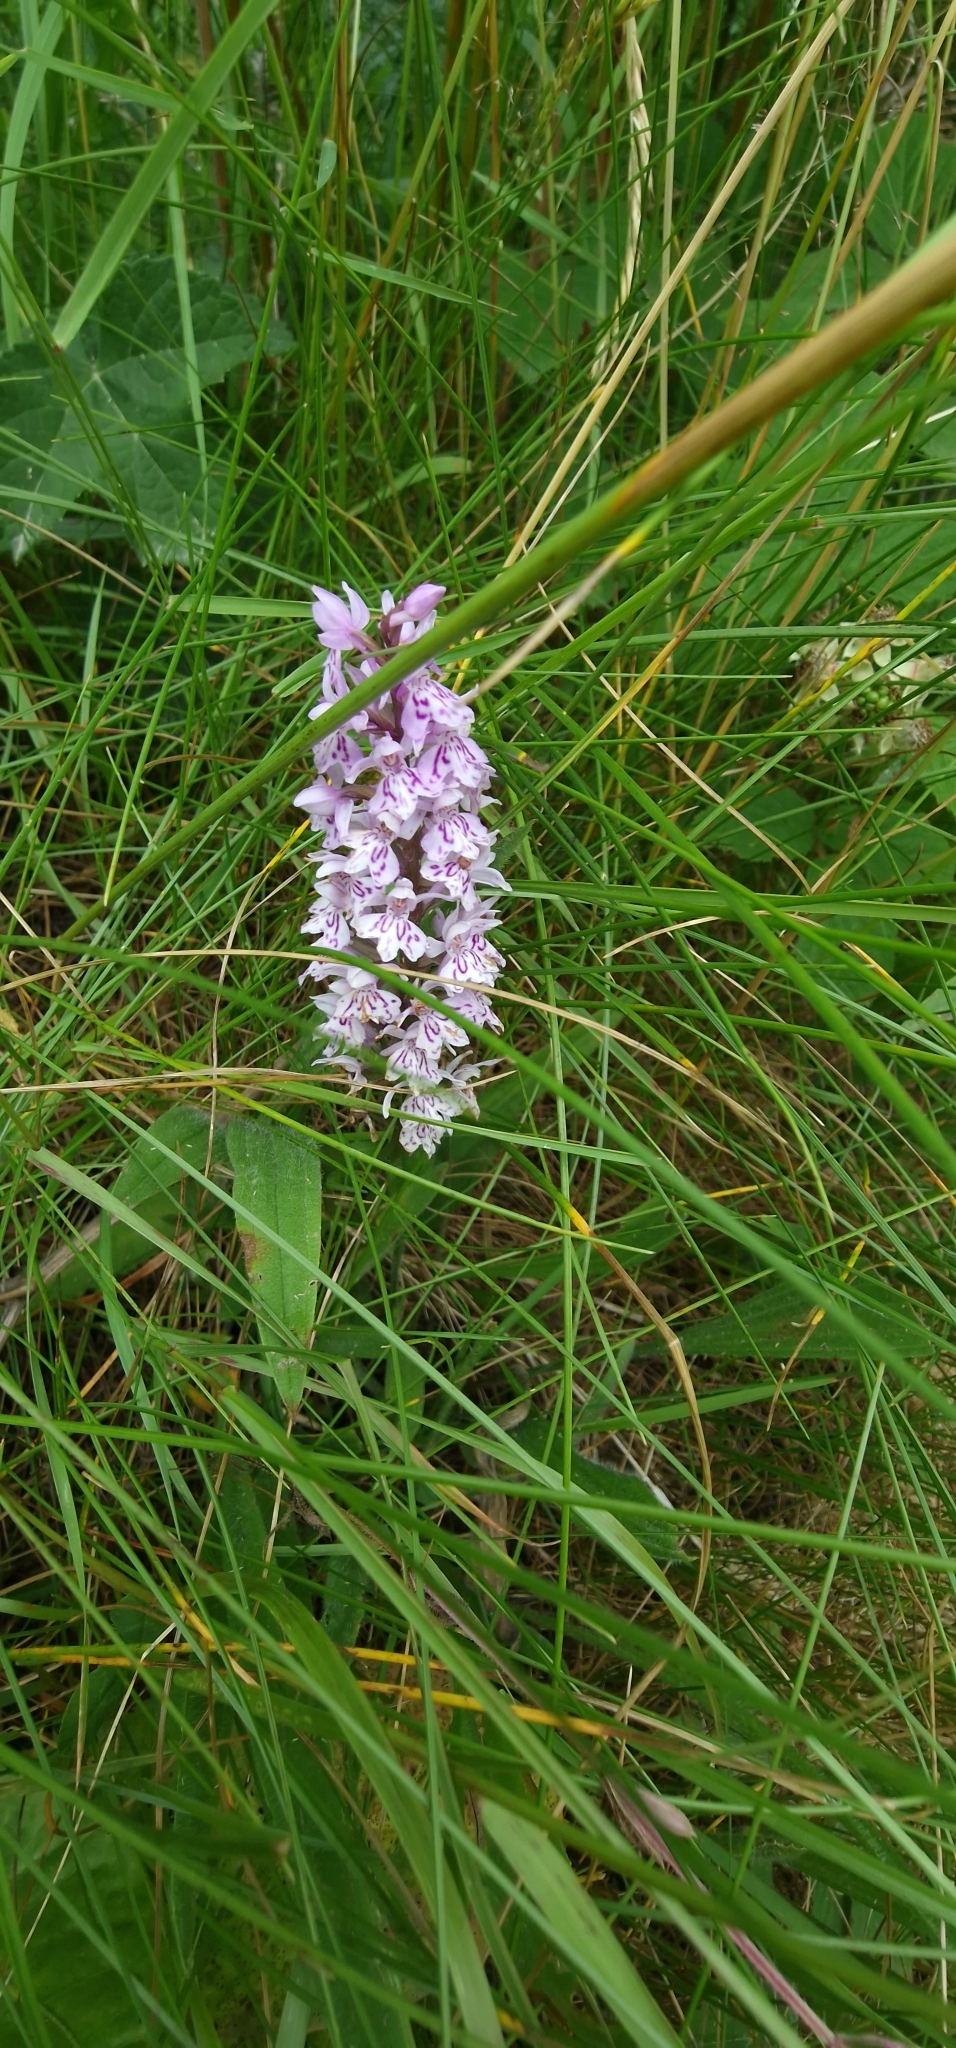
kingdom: Plantae
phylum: Tracheophyta
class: Liliopsida
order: Asparagales
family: Orchidaceae
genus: Dactylorhiza
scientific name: Dactylorhiza maculata
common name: Heath spotted-orchid
